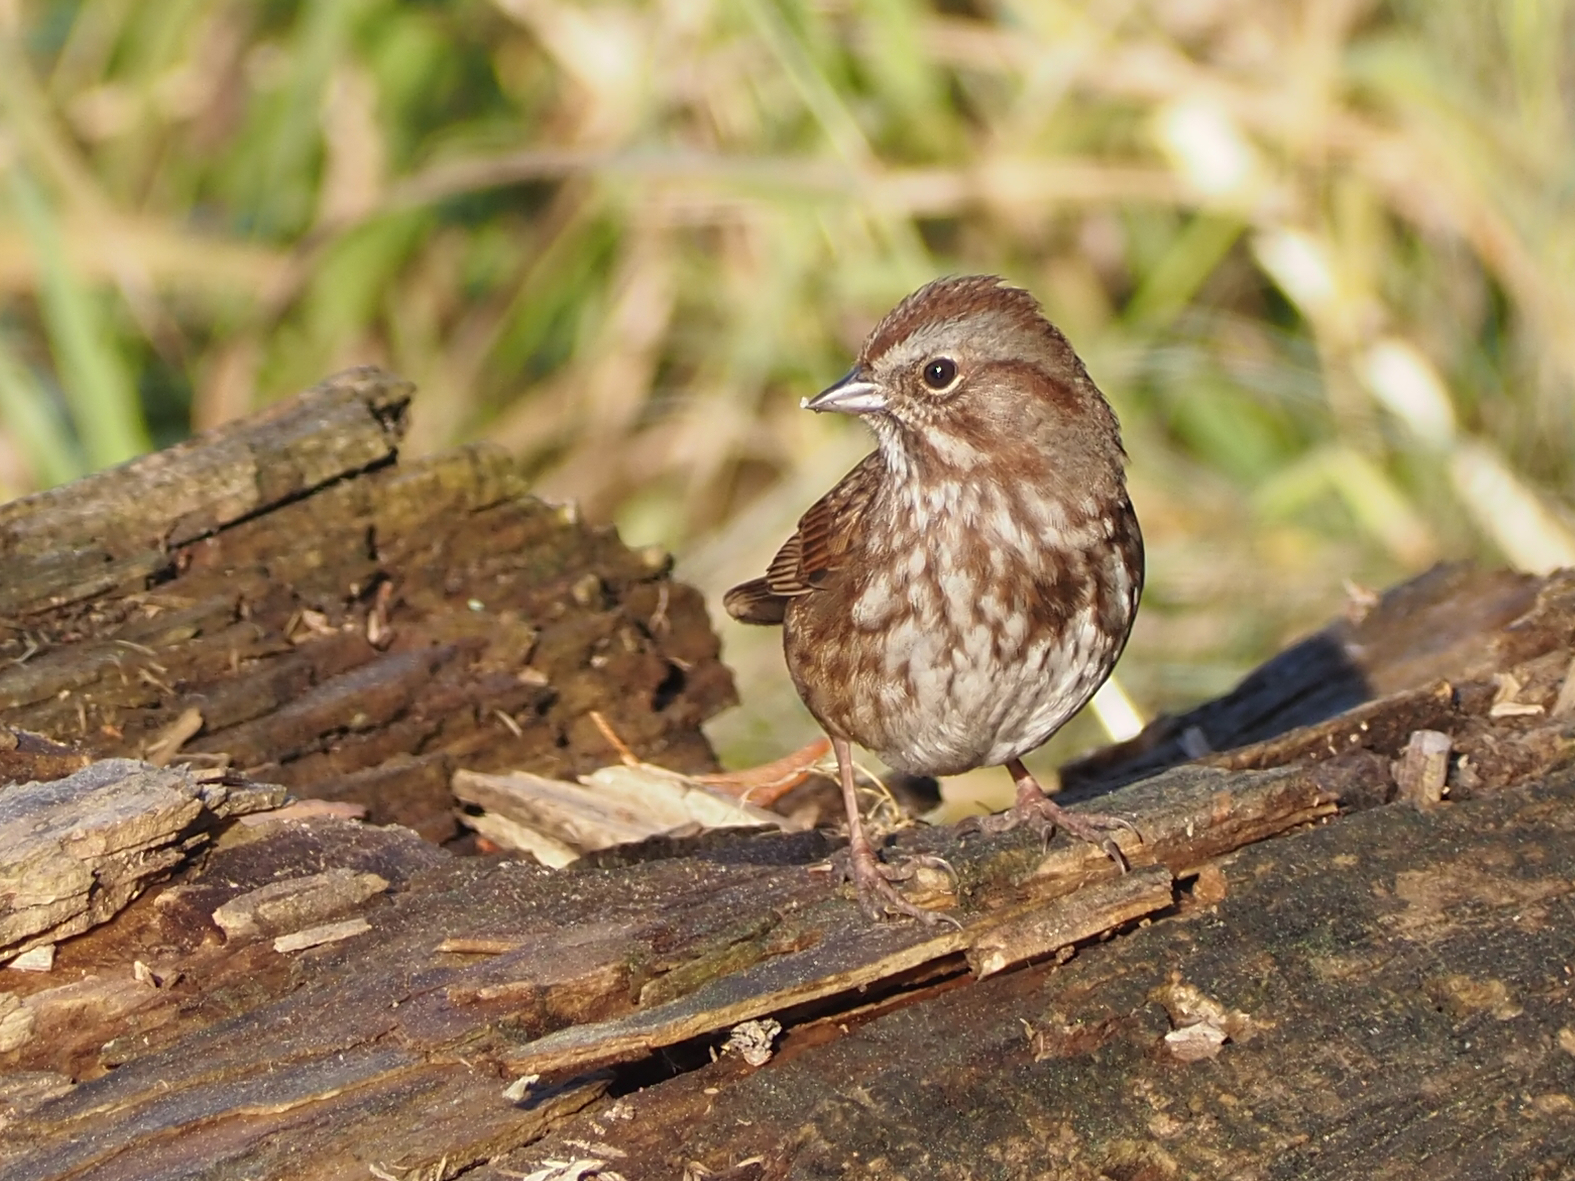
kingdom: Animalia
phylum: Chordata
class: Aves
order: Passeriformes
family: Passerellidae
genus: Melospiza
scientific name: Melospiza melodia
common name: Song sparrow
